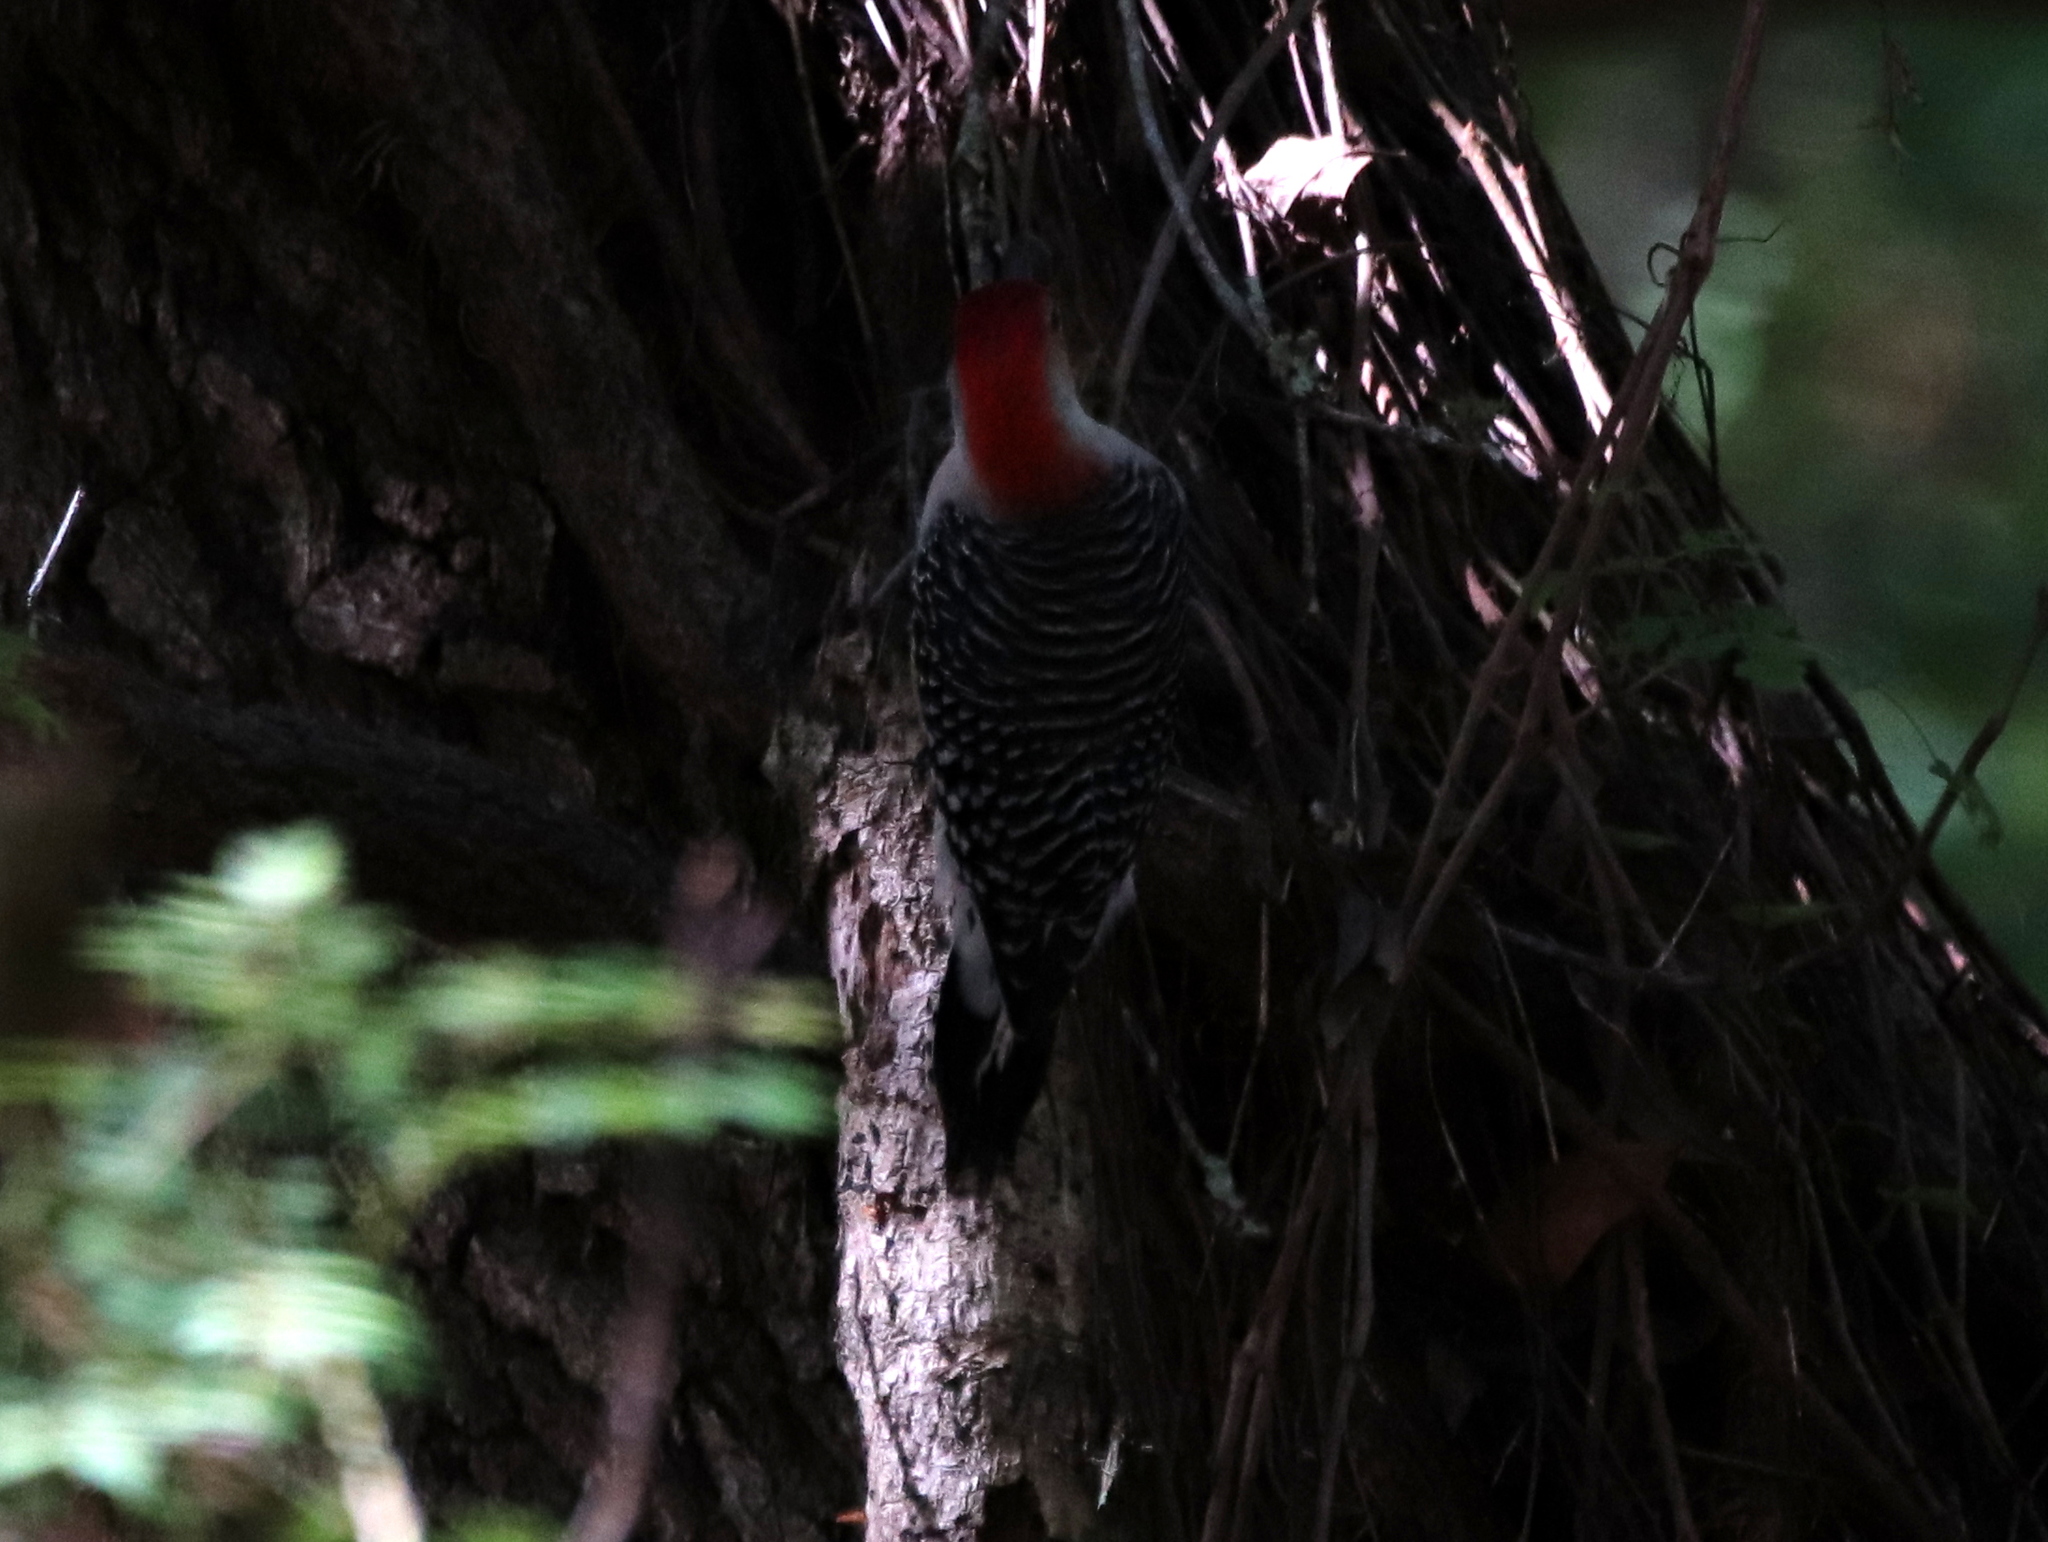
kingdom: Animalia
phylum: Chordata
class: Aves
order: Piciformes
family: Picidae
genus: Melanerpes
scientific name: Melanerpes carolinus
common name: Red-bellied woodpecker
